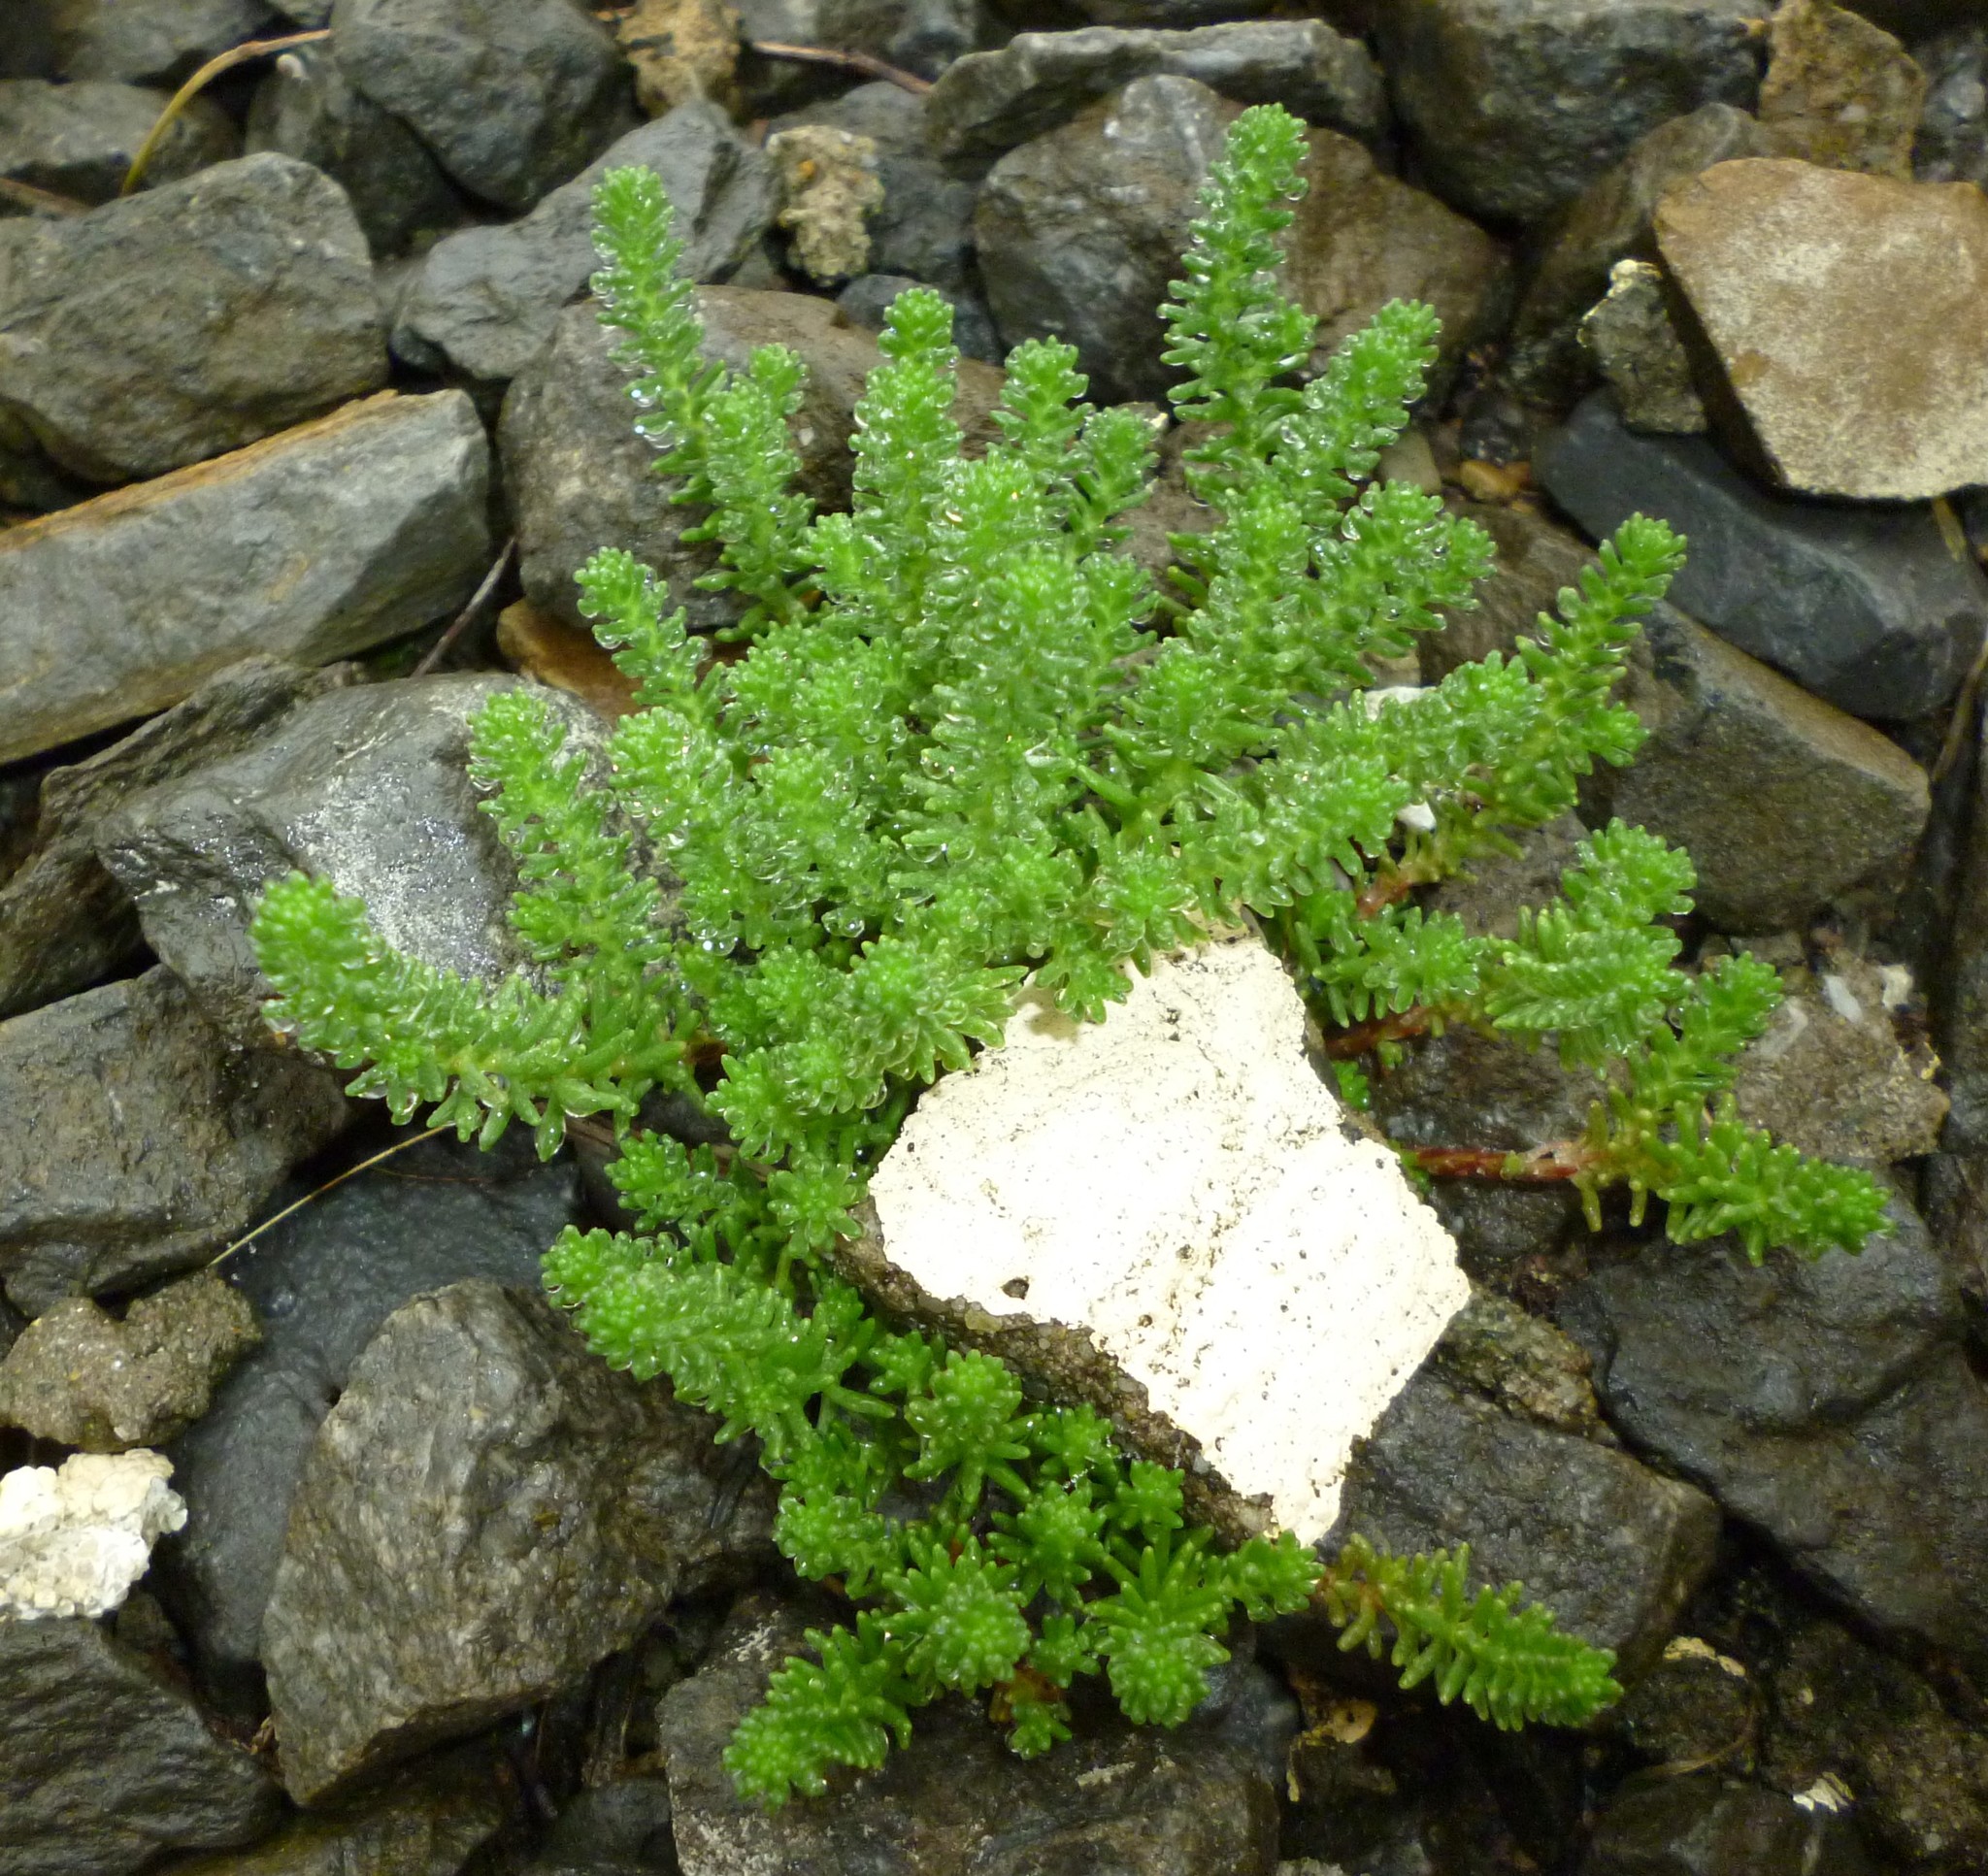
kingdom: Plantae
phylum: Tracheophyta
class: Magnoliopsida
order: Saxifragales
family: Crassulaceae
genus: Sedum
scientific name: Sedum sexangulare
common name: Tasteless stonecrop
